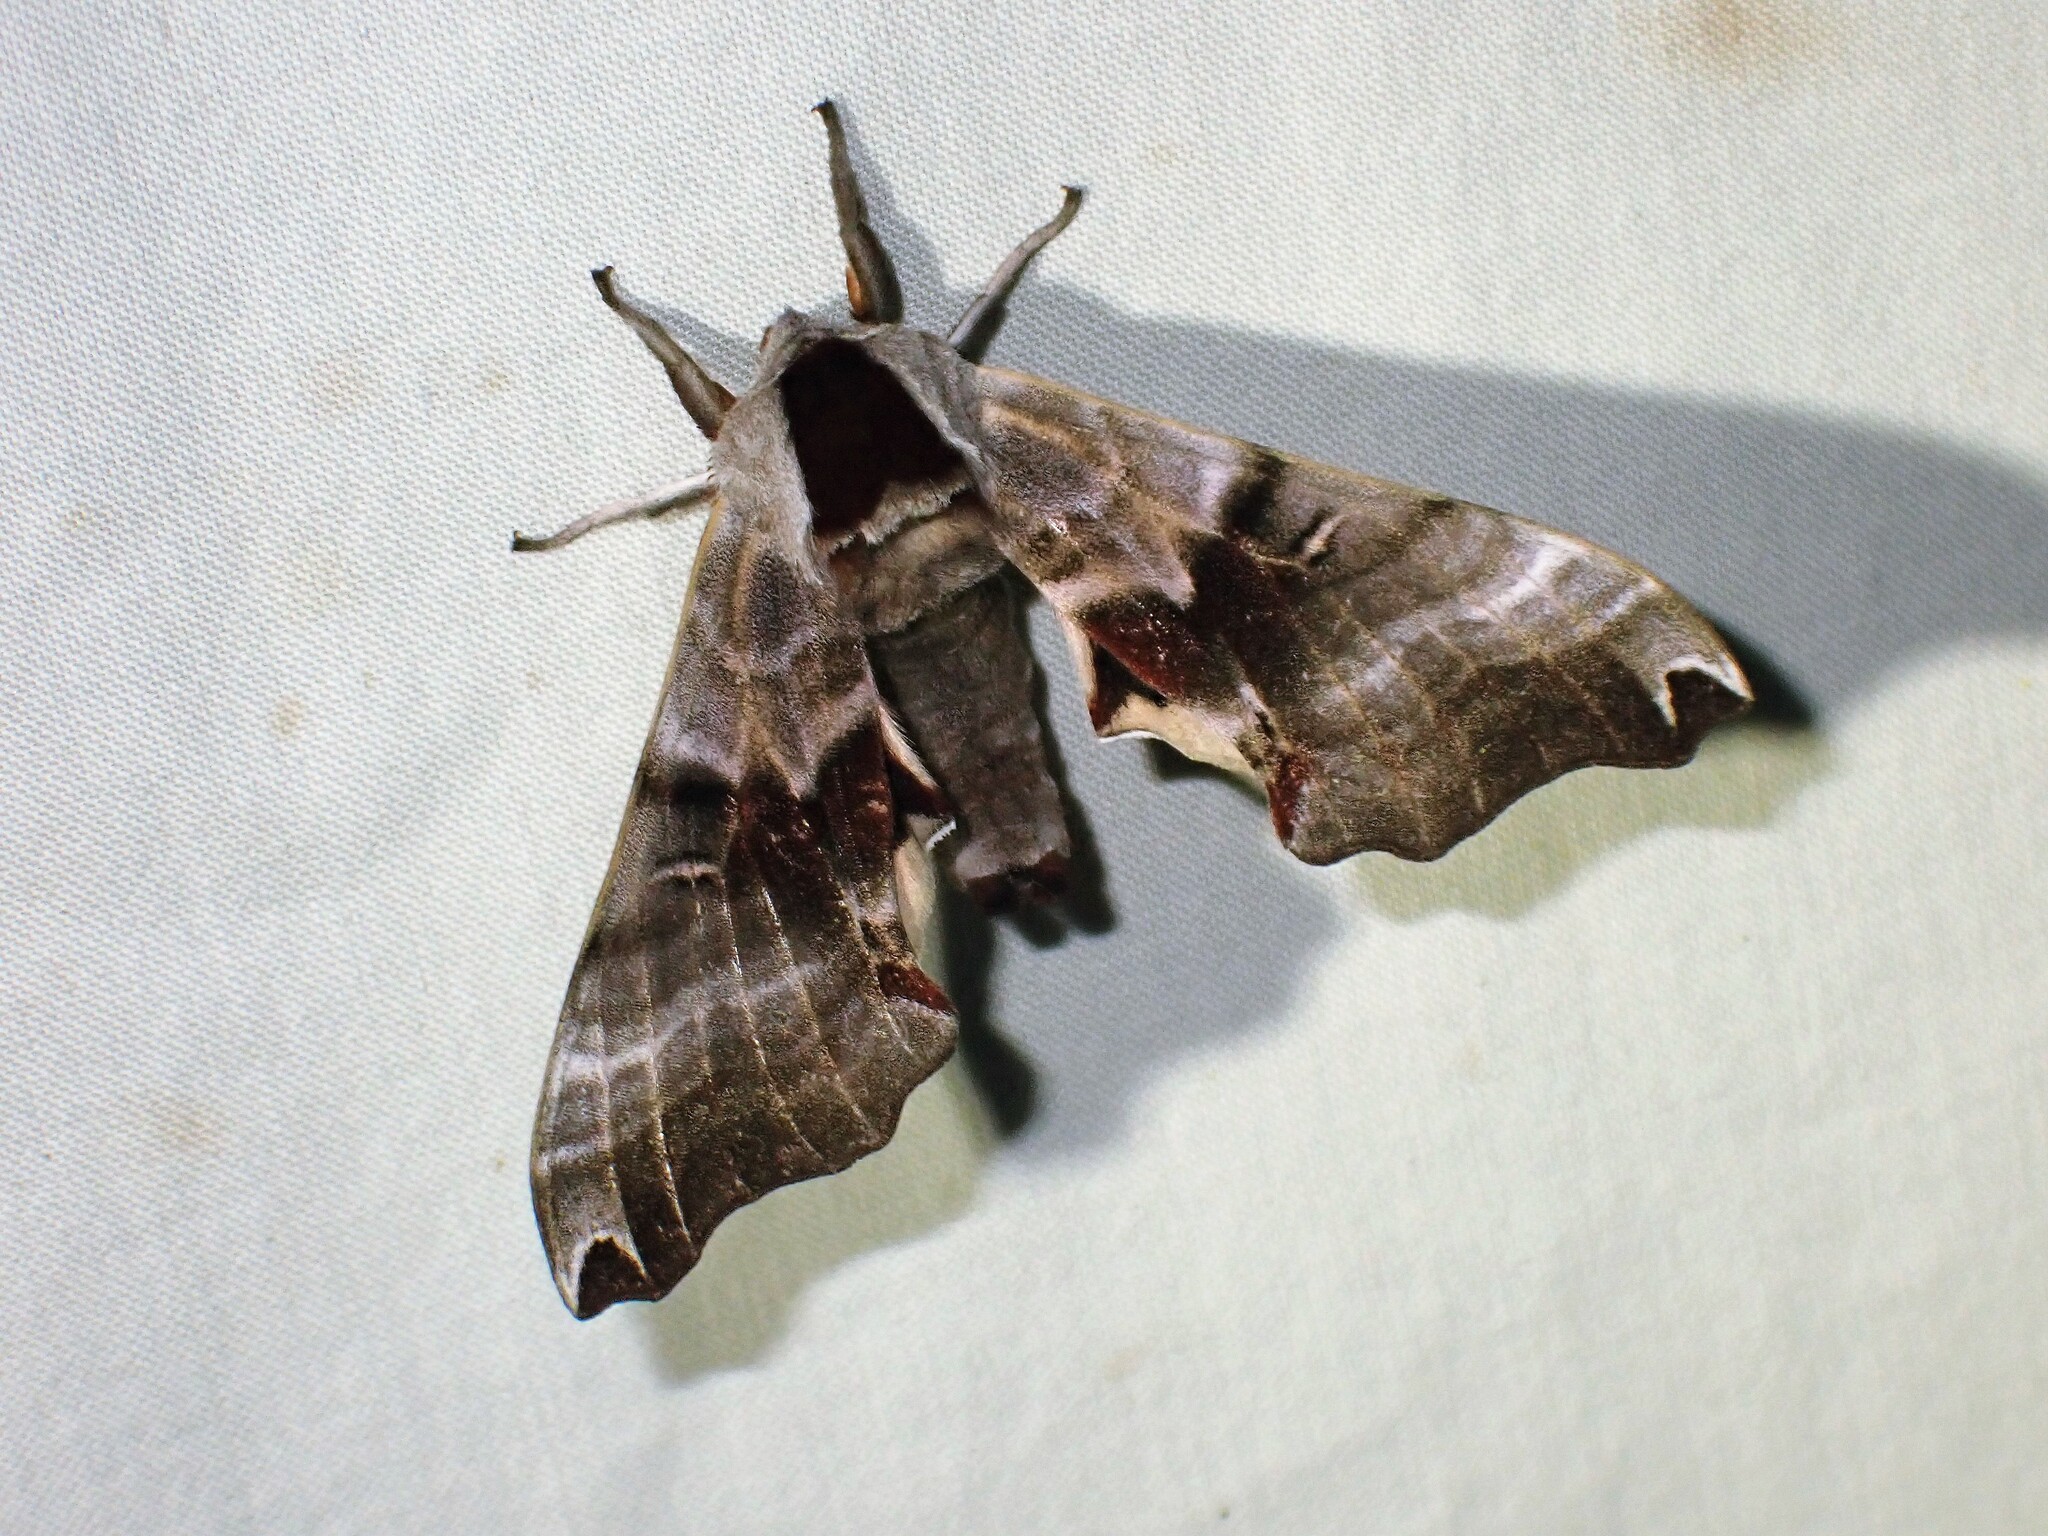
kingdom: Animalia
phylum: Arthropoda
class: Insecta
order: Lepidoptera
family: Sphingidae
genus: Smerinthus
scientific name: Smerinthus jamaicensis
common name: Twin spotted sphinx
